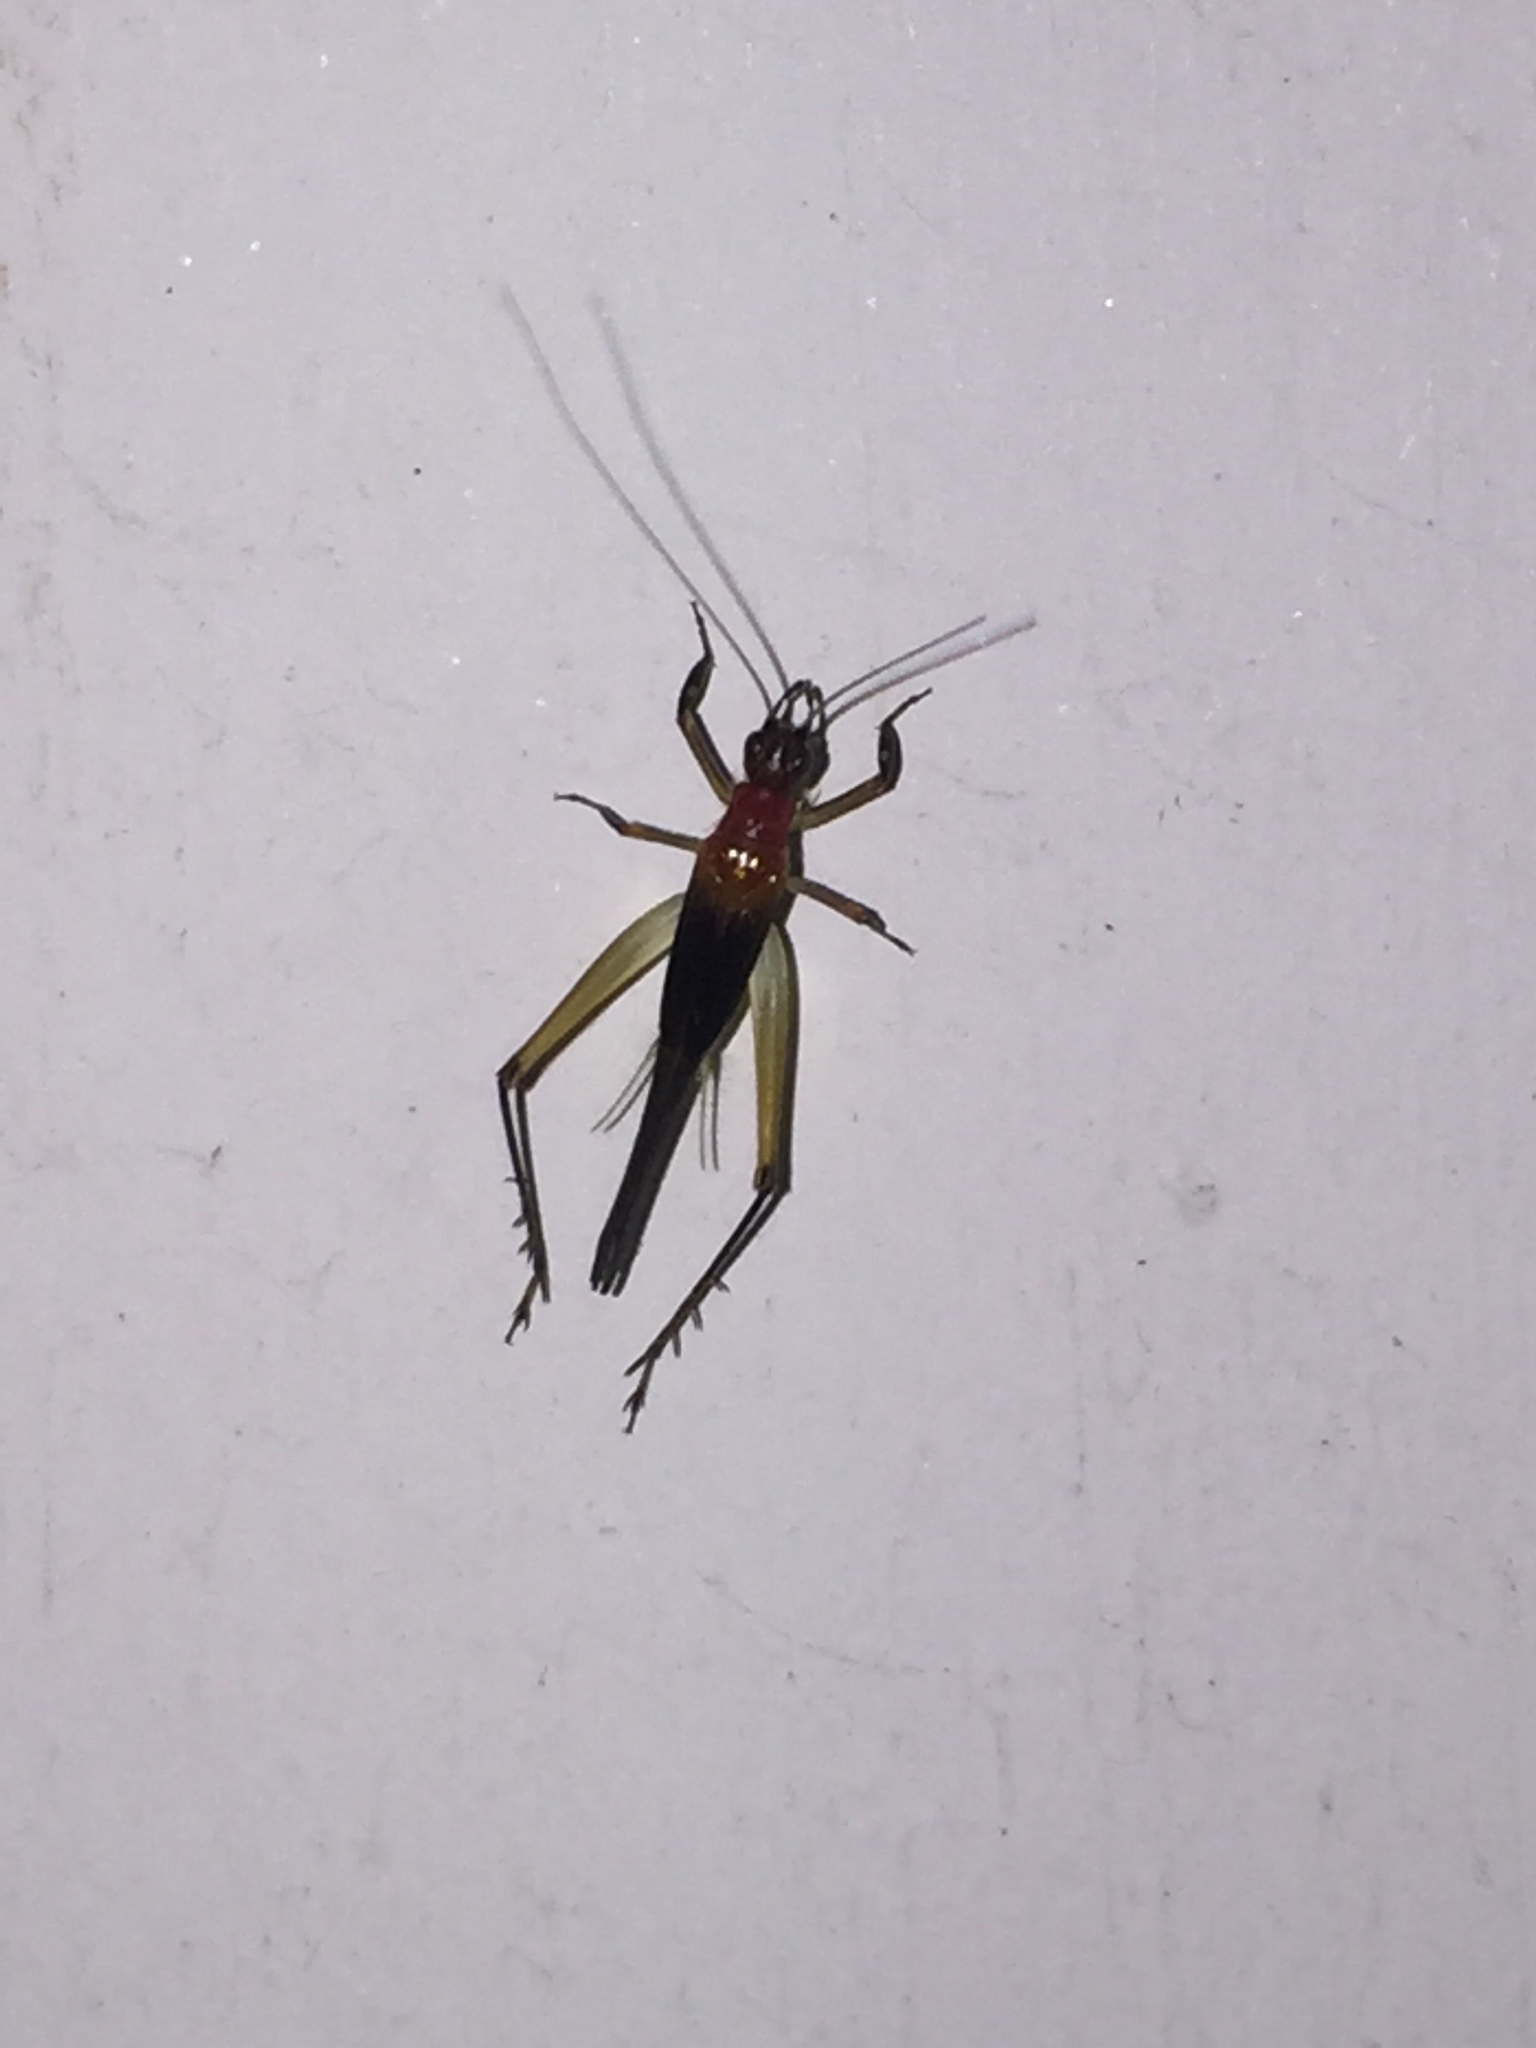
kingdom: Animalia
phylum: Arthropoda
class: Insecta
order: Orthoptera
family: Trigonidiidae
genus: Homoeoxipha
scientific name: Homoeoxipha lycoides
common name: Tinkling leaf-runner
